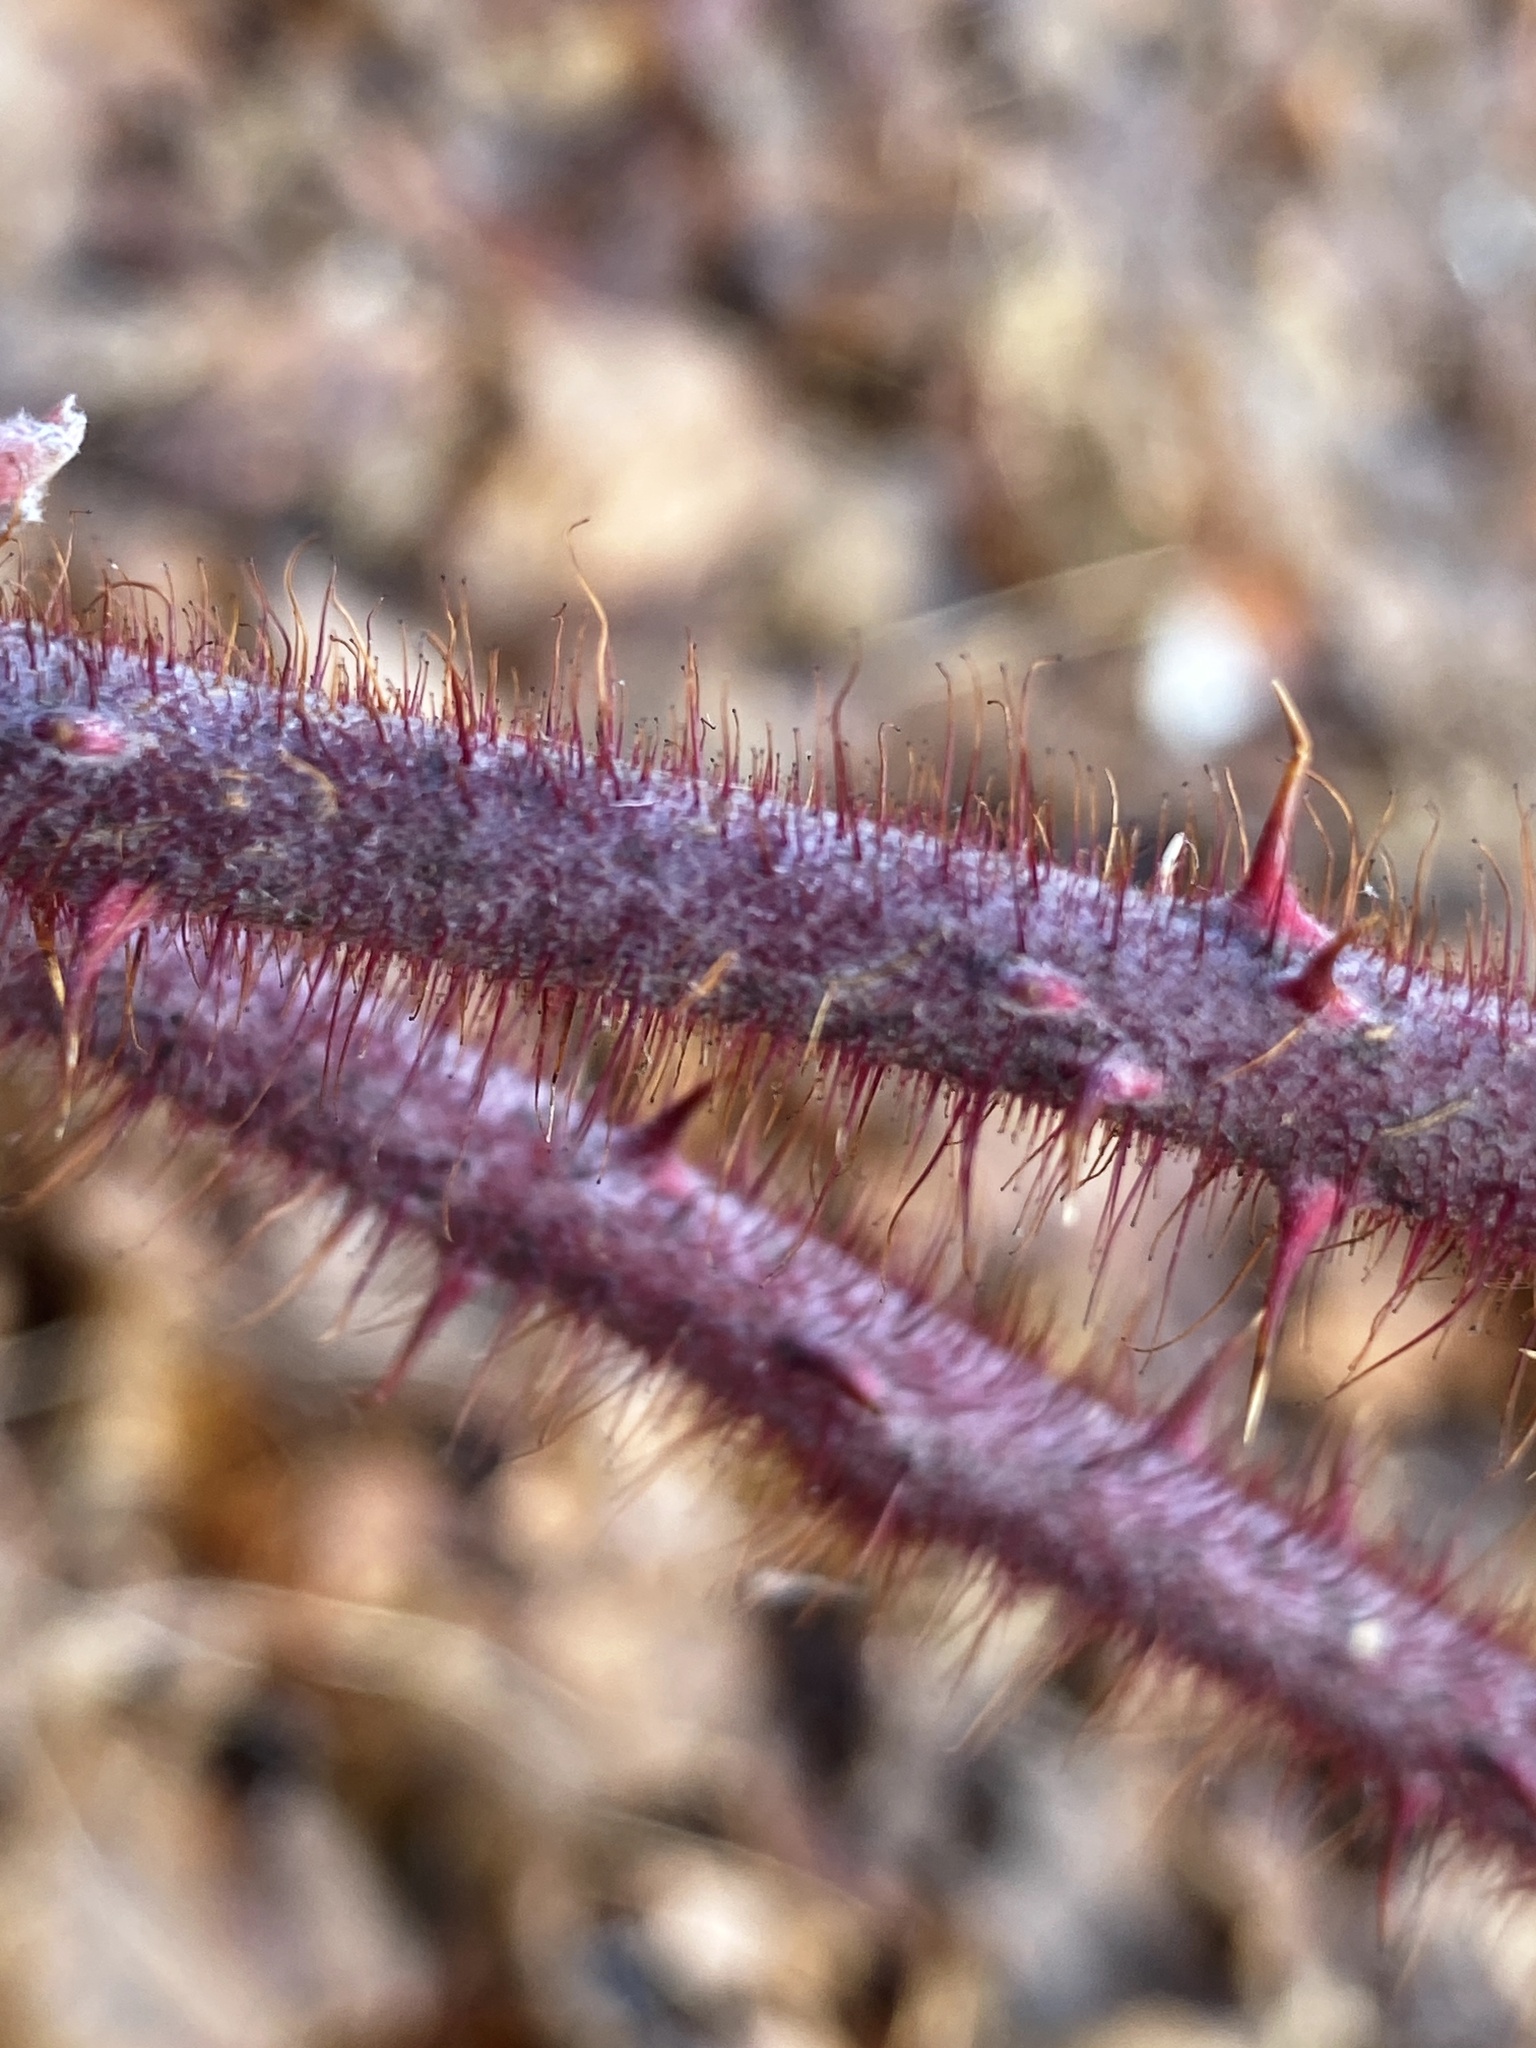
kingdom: Plantae
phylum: Tracheophyta
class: Magnoliopsida
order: Rosales
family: Rosaceae
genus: Rubus
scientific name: Rubus phoenicolasius
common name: Japanese wineberry
